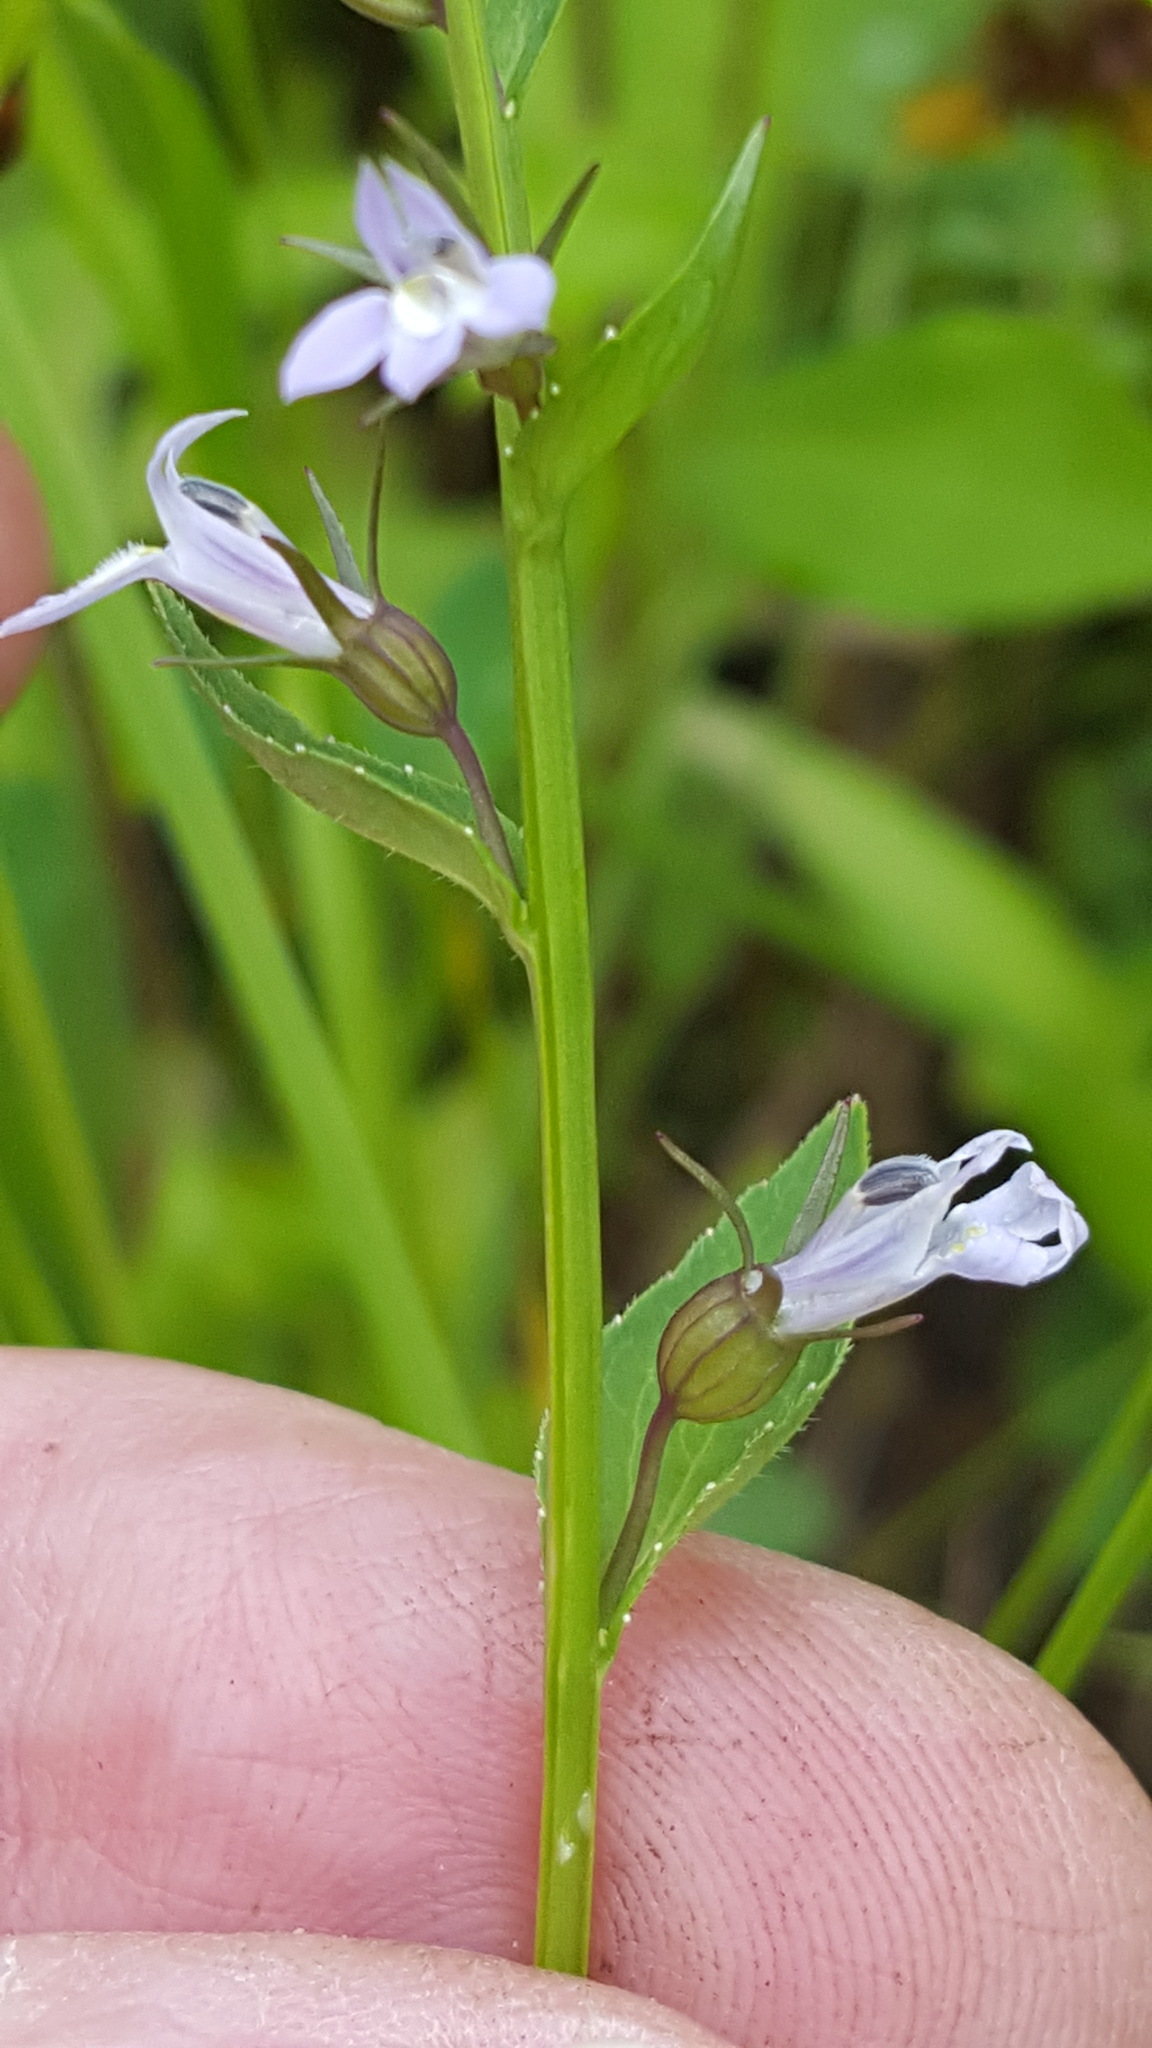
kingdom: Plantae
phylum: Tracheophyta
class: Magnoliopsida
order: Asterales
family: Campanulaceae
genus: Lobelia
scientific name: Lobelia inflata
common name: Indian tobacco
